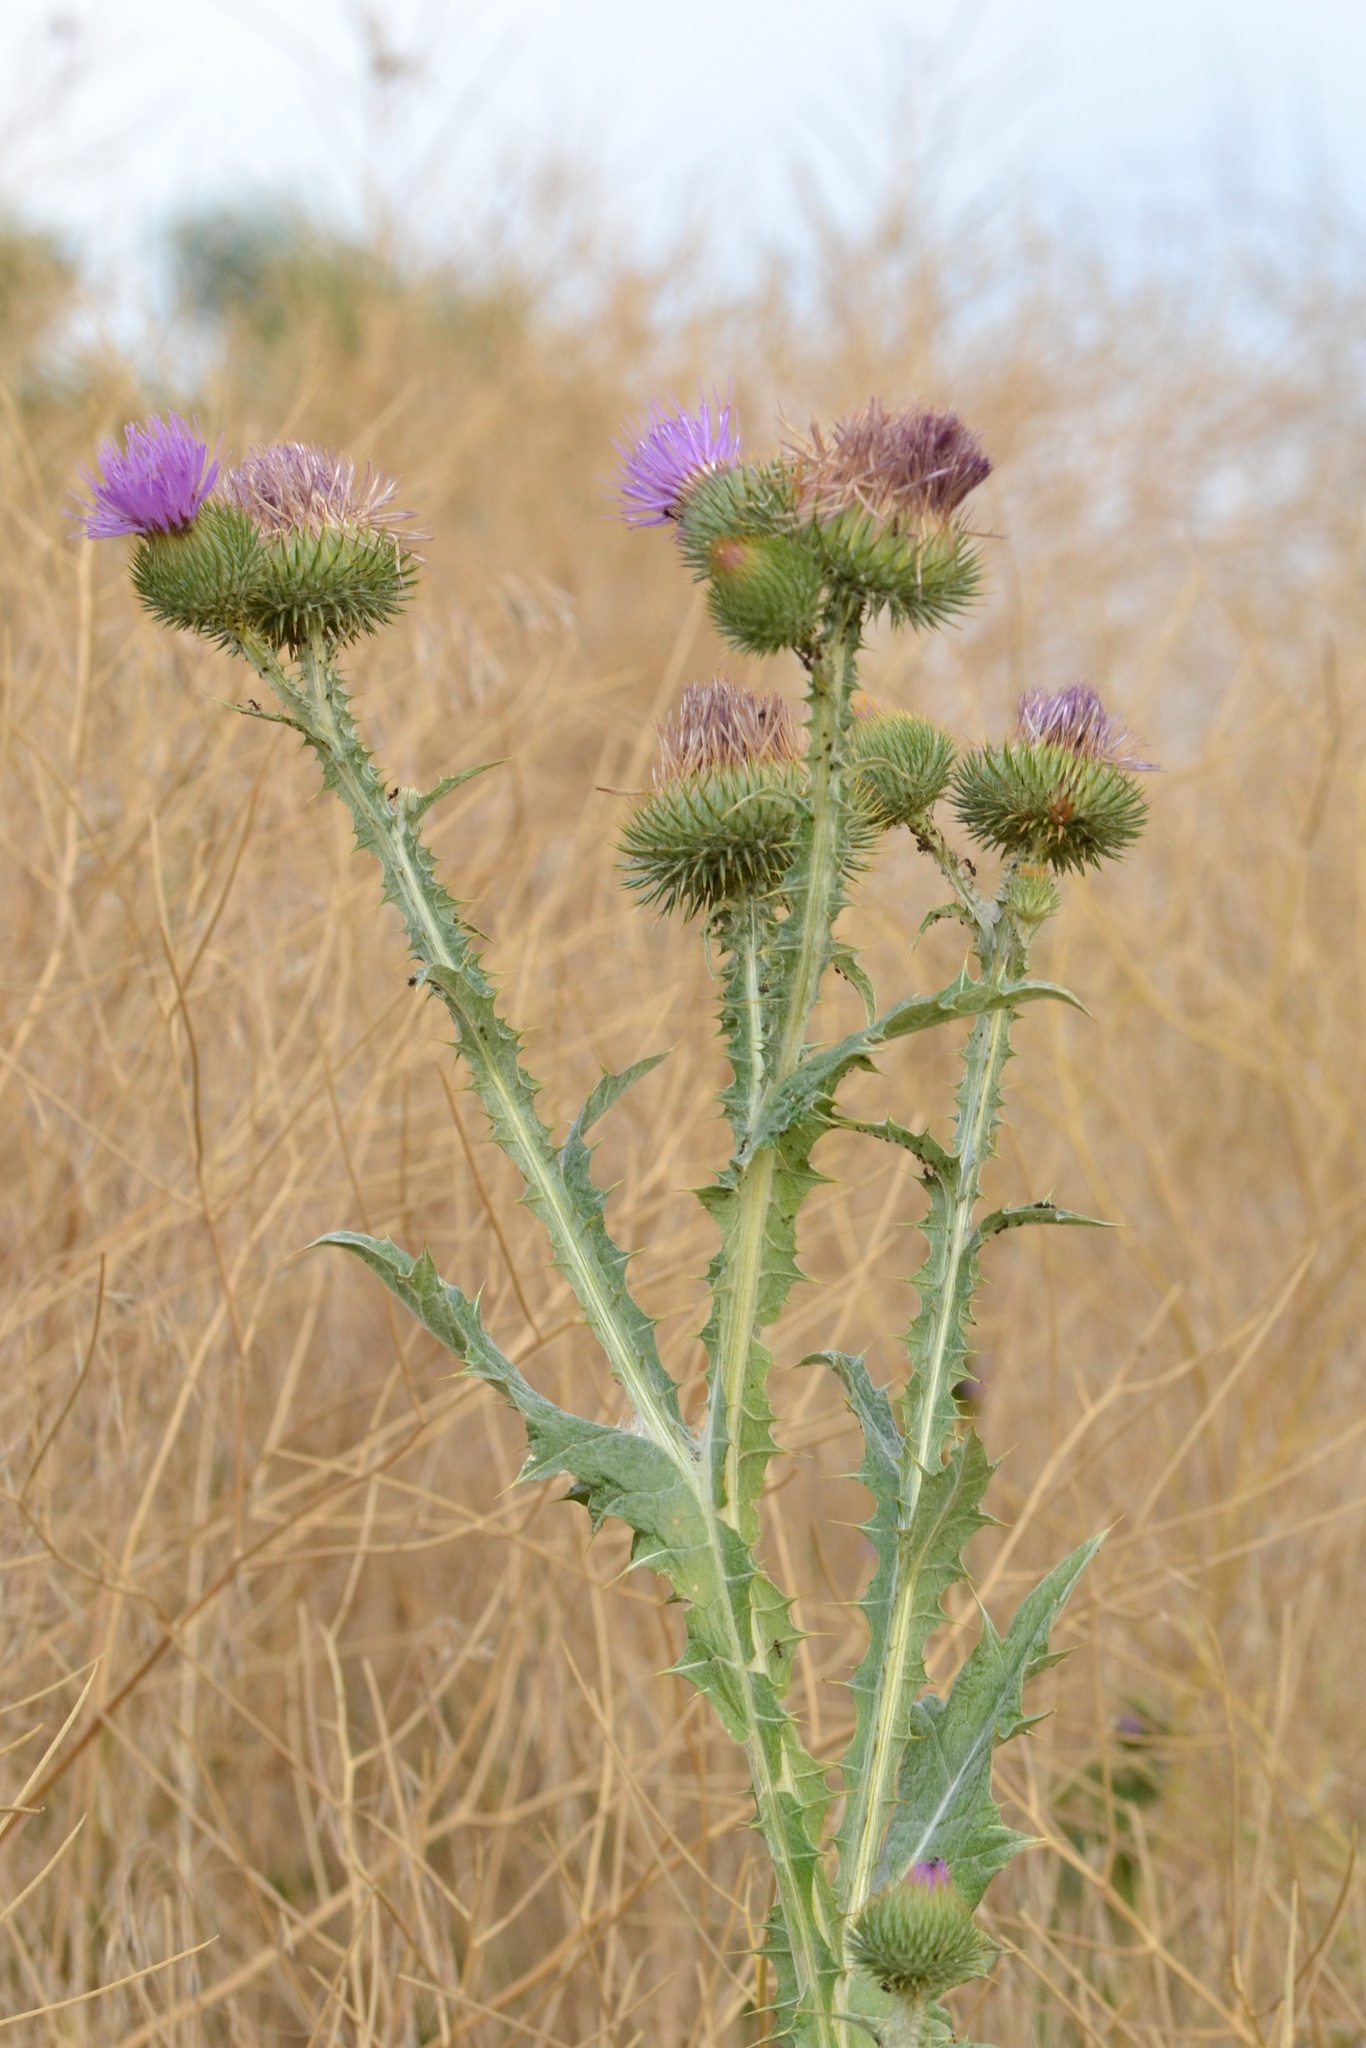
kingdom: Plantae
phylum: Tracheophyta
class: Magnoliopsida
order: Asterales
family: Asteraceae
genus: Onopordum
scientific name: Onopordum acanthium
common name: Scotch thistle
